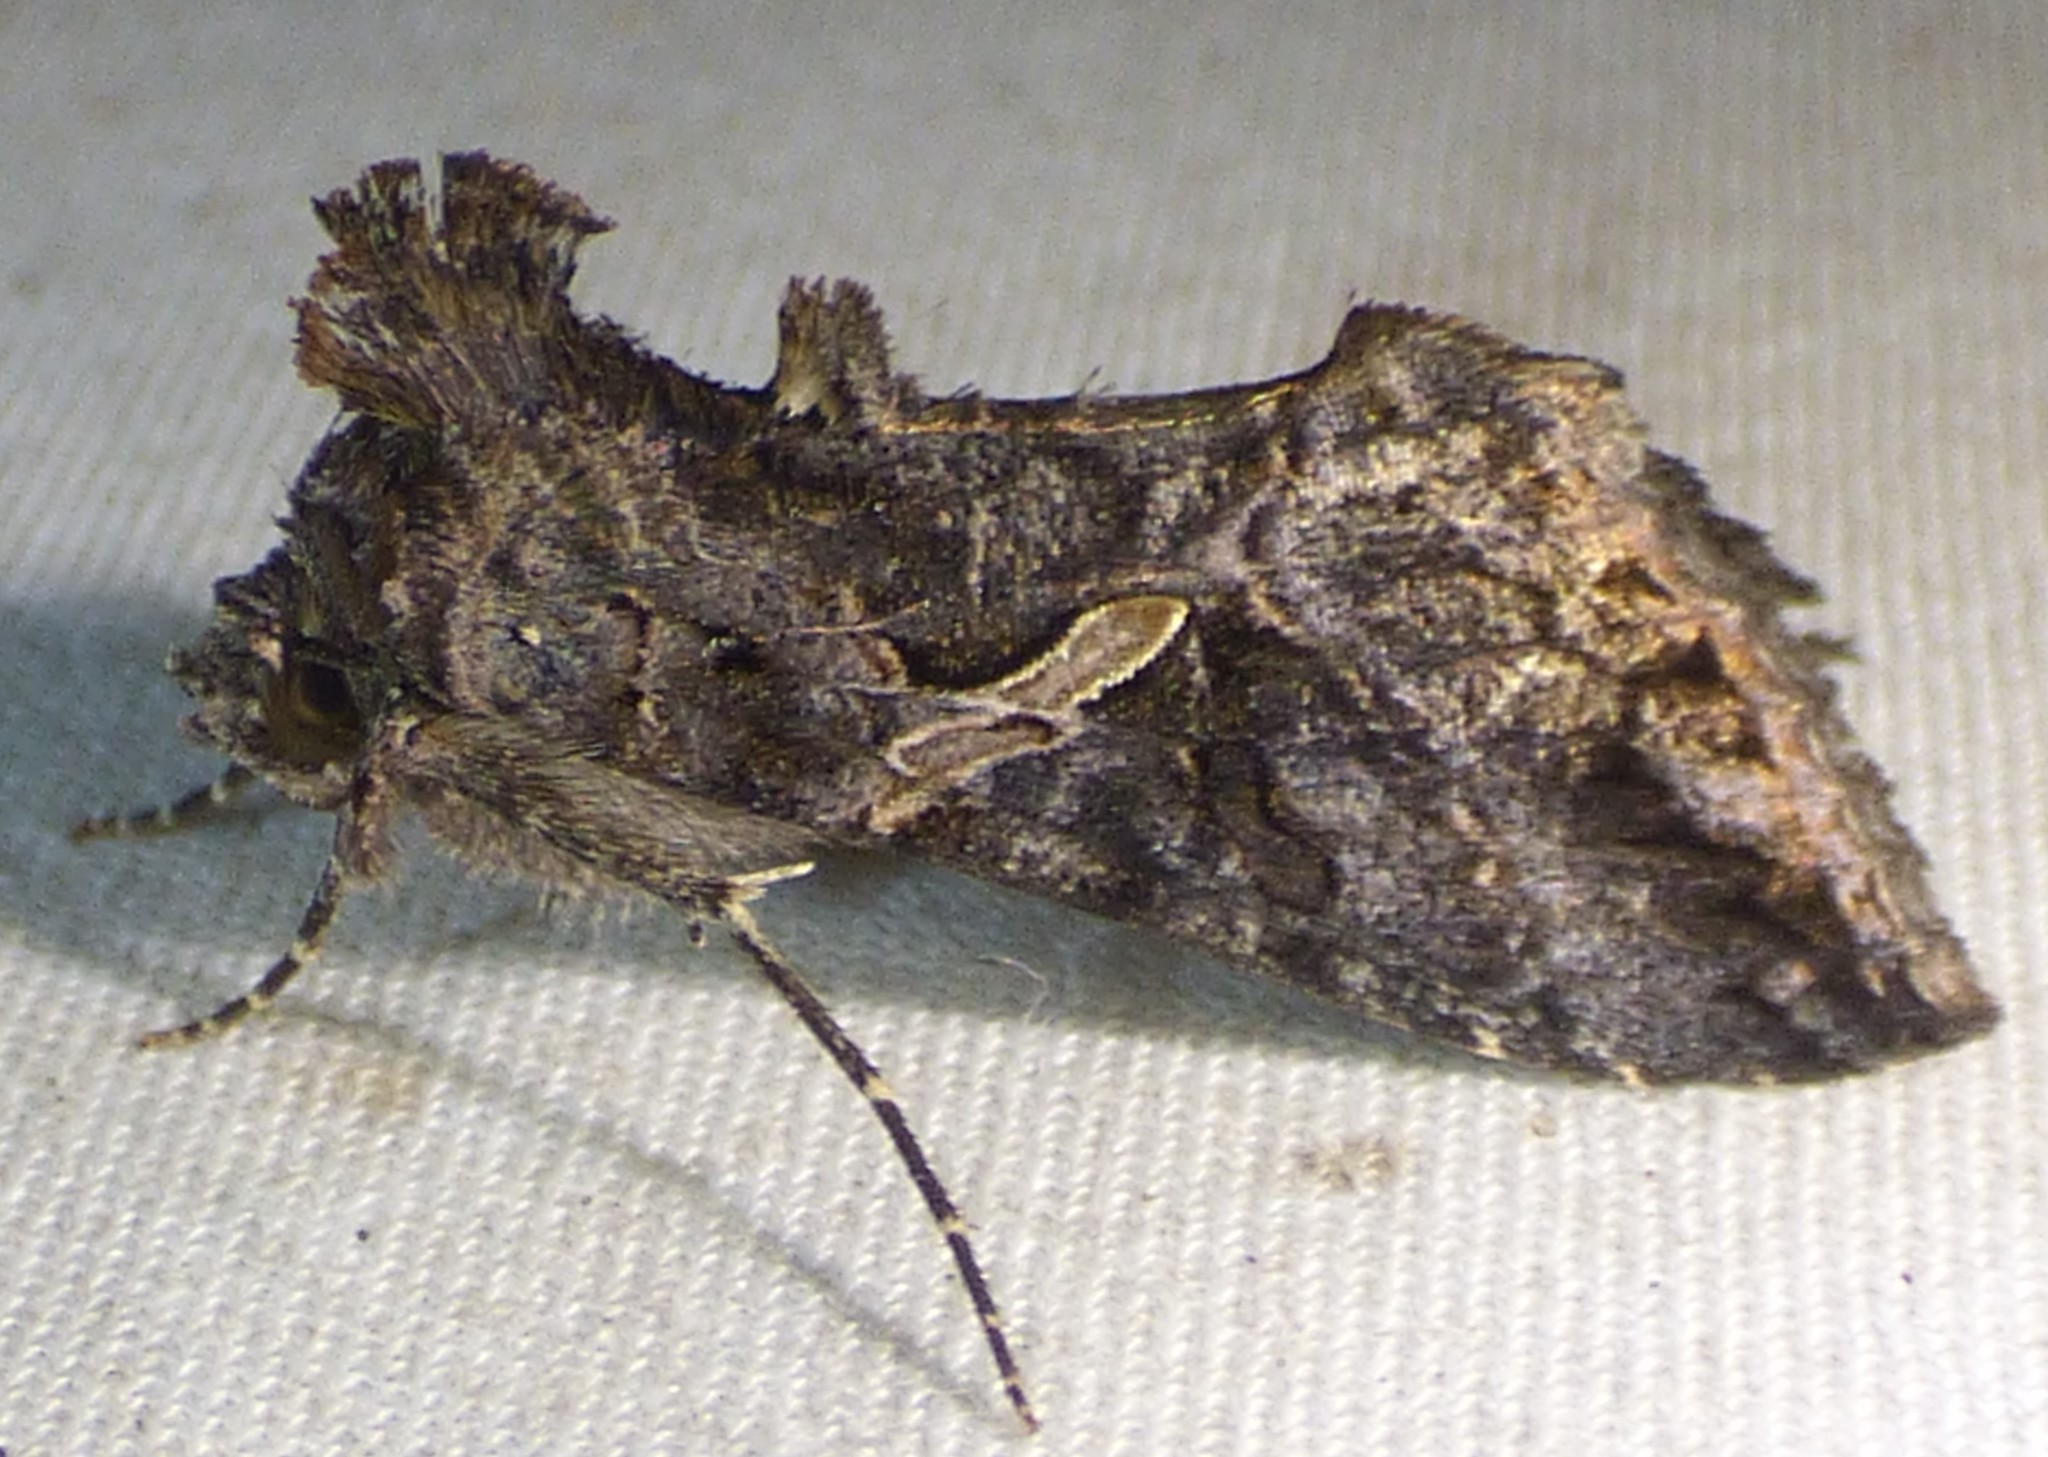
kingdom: Animalia
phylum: Arthropoda
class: Insecta
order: Lepidoptera
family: Noctuidae
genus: Ctenoplusia
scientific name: Ctenoplusia oxygramma
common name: Sharp-stigma looper moth
